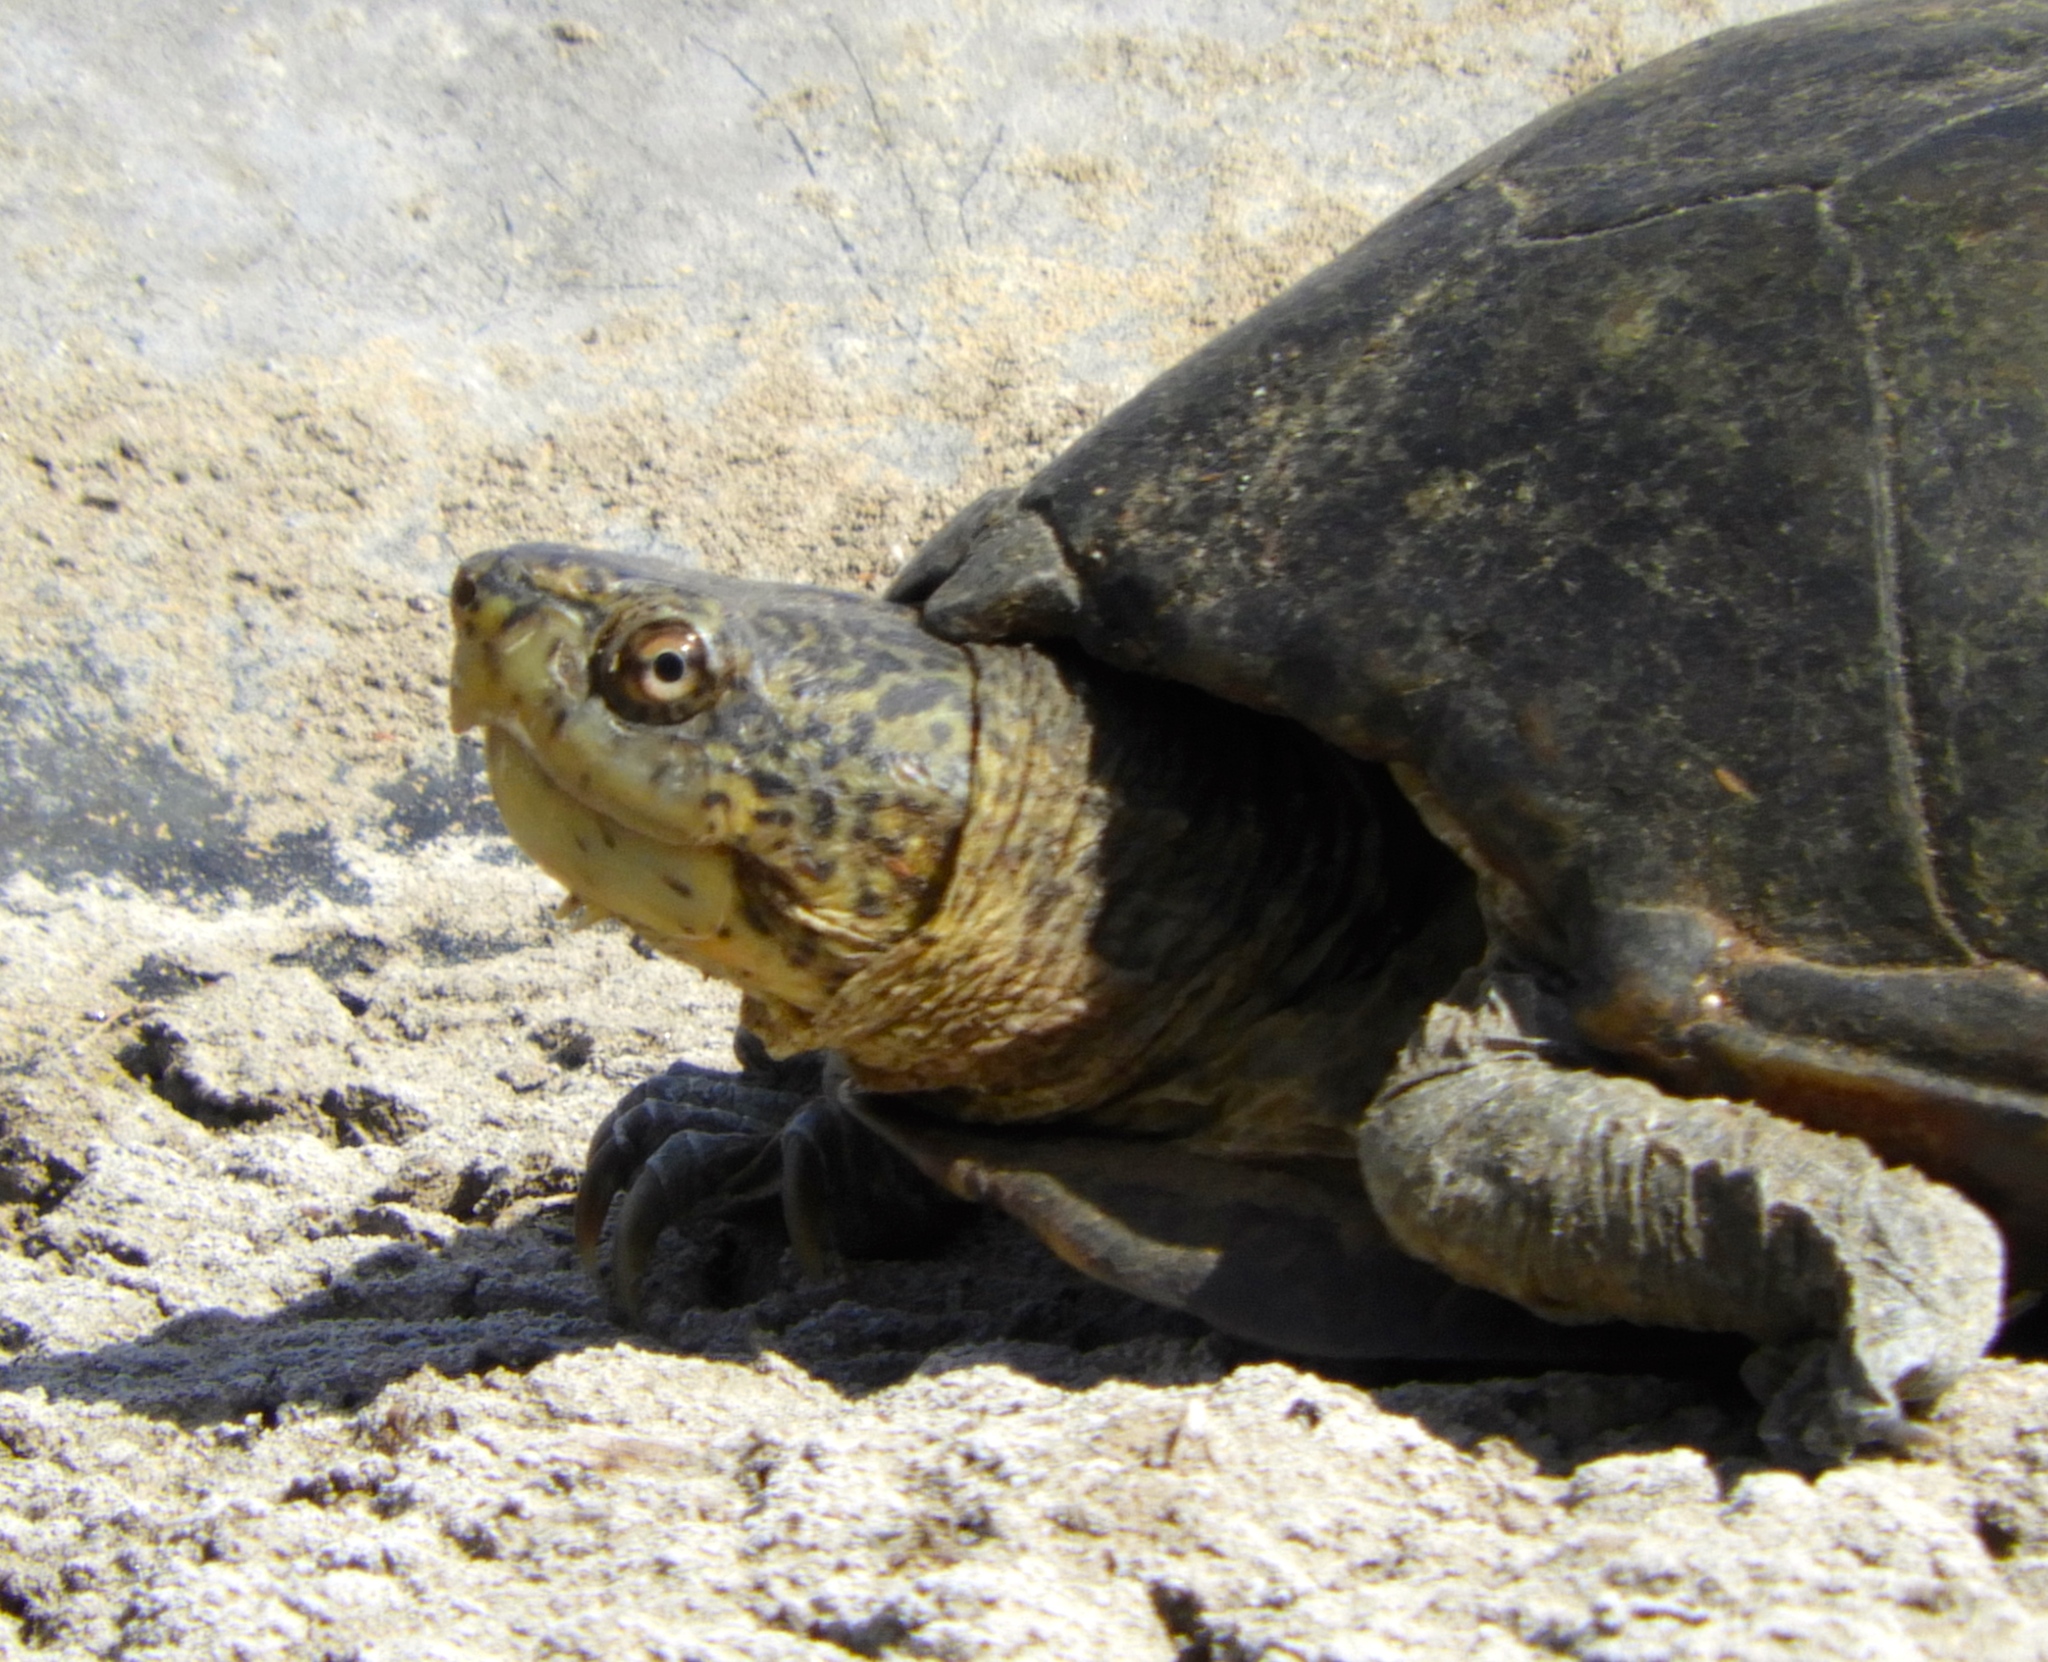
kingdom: Animalia
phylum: Chordata
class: Testudines
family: Kinosternidae
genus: Kinosternon
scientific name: Kinosternon integrum
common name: Mexican mud turtle
